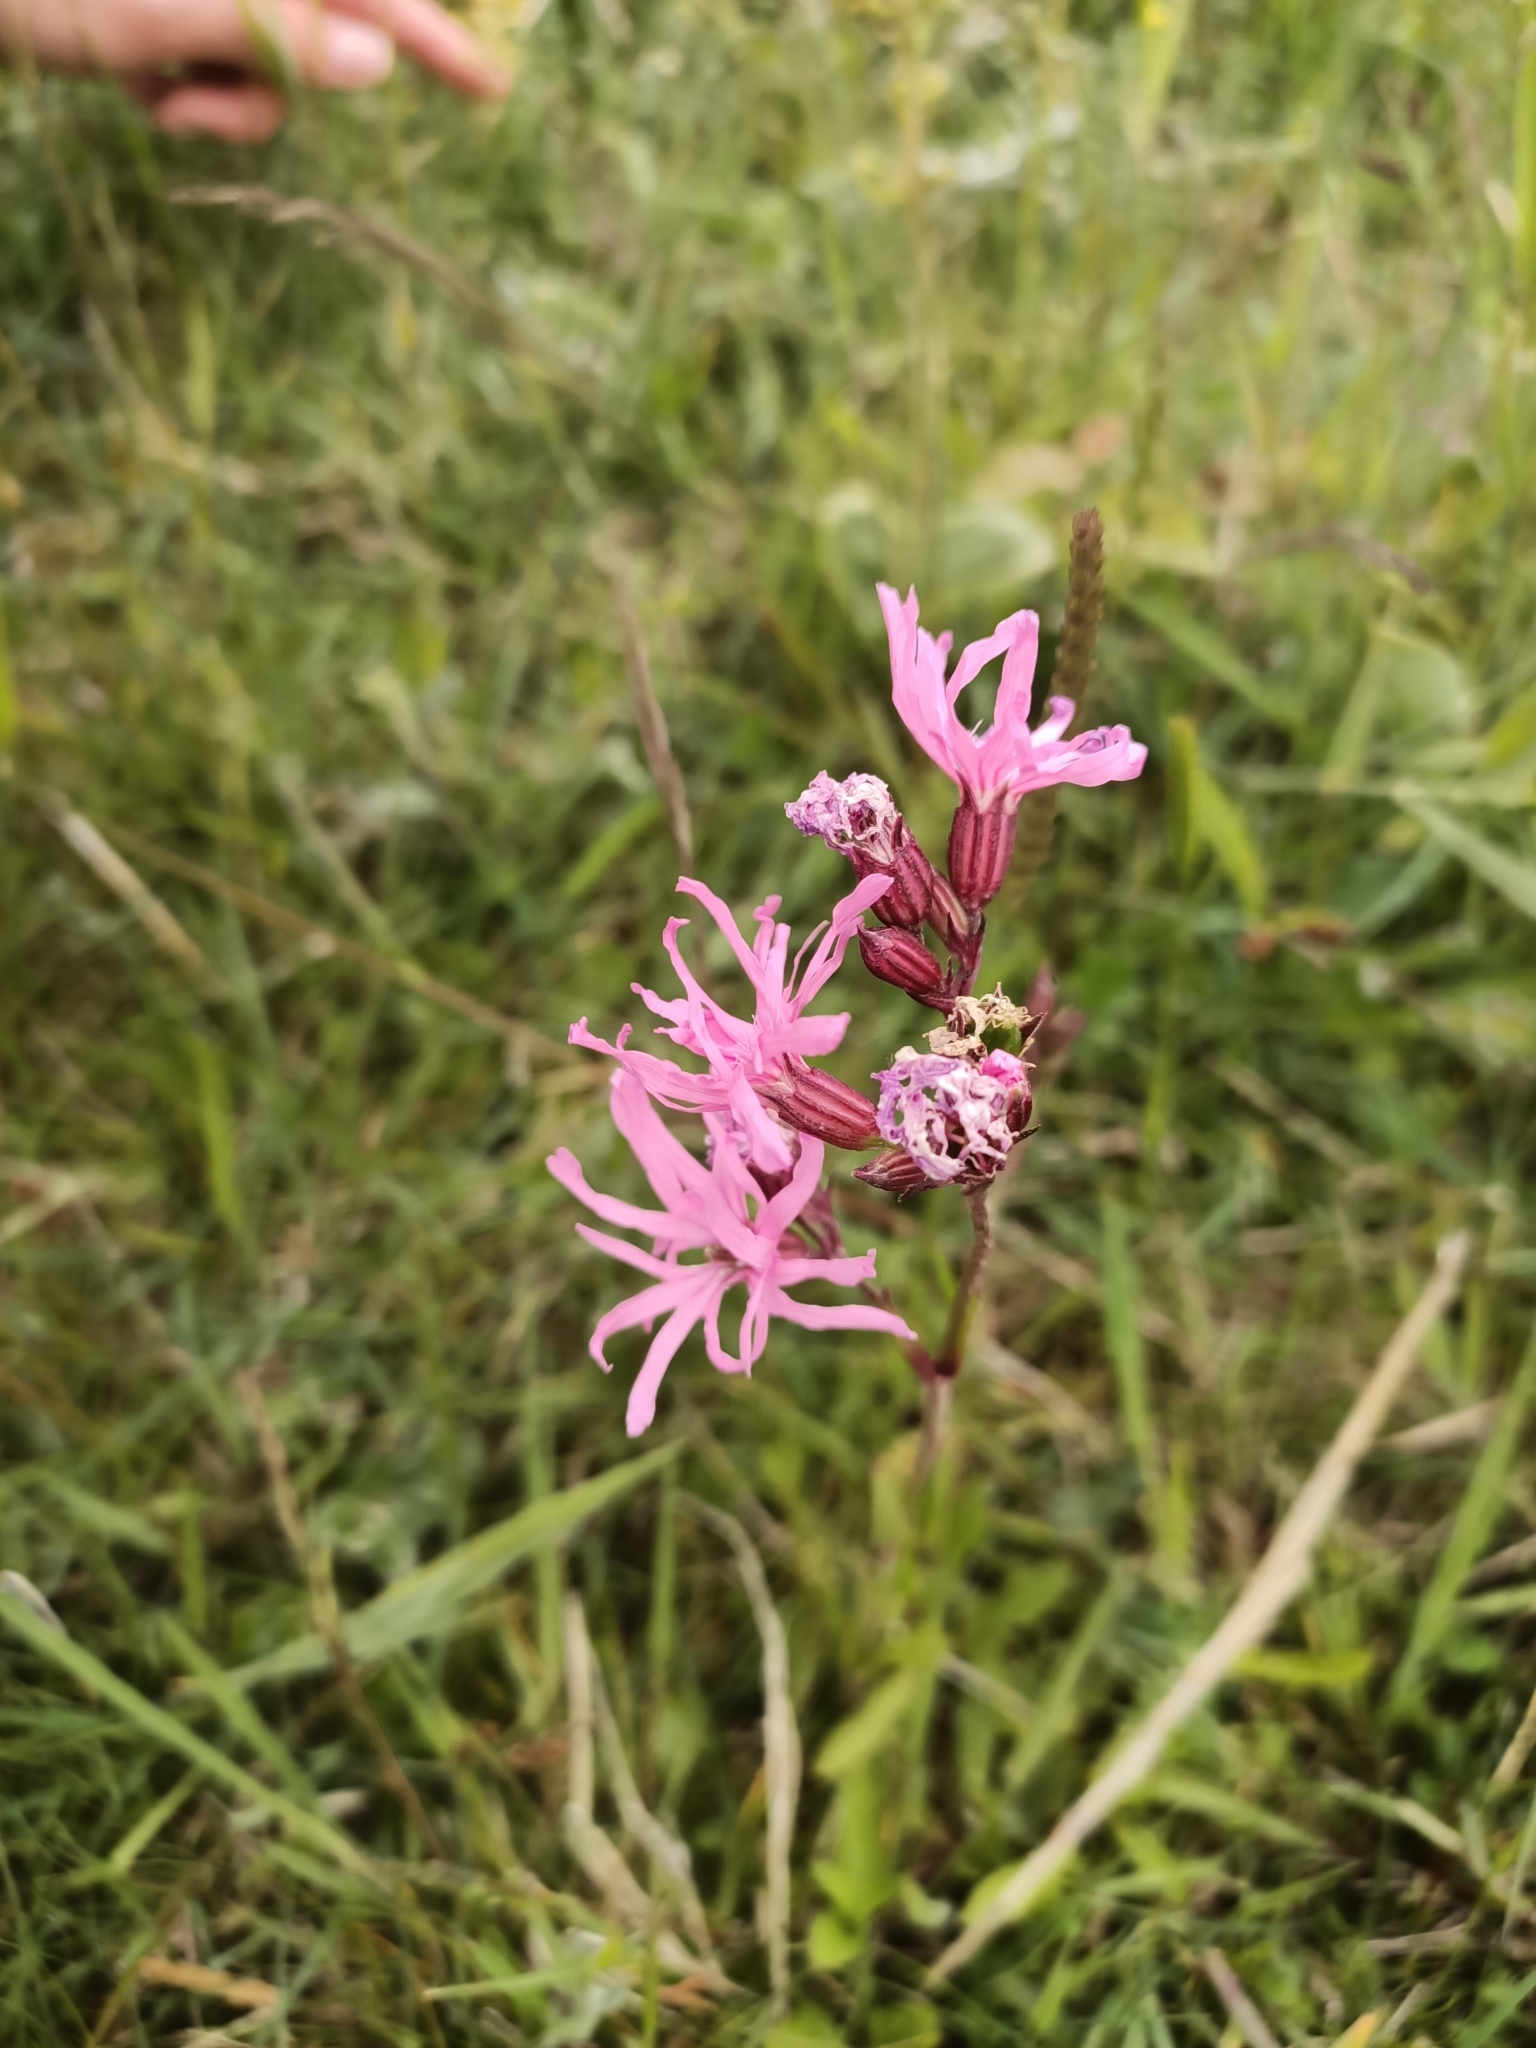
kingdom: Plantae
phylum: Tracheophyta
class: Magnoliopsida
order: Caryophyllales
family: Caryophyllaceae
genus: Silene
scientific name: Silene flos-cuculi
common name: Ragged-robin
